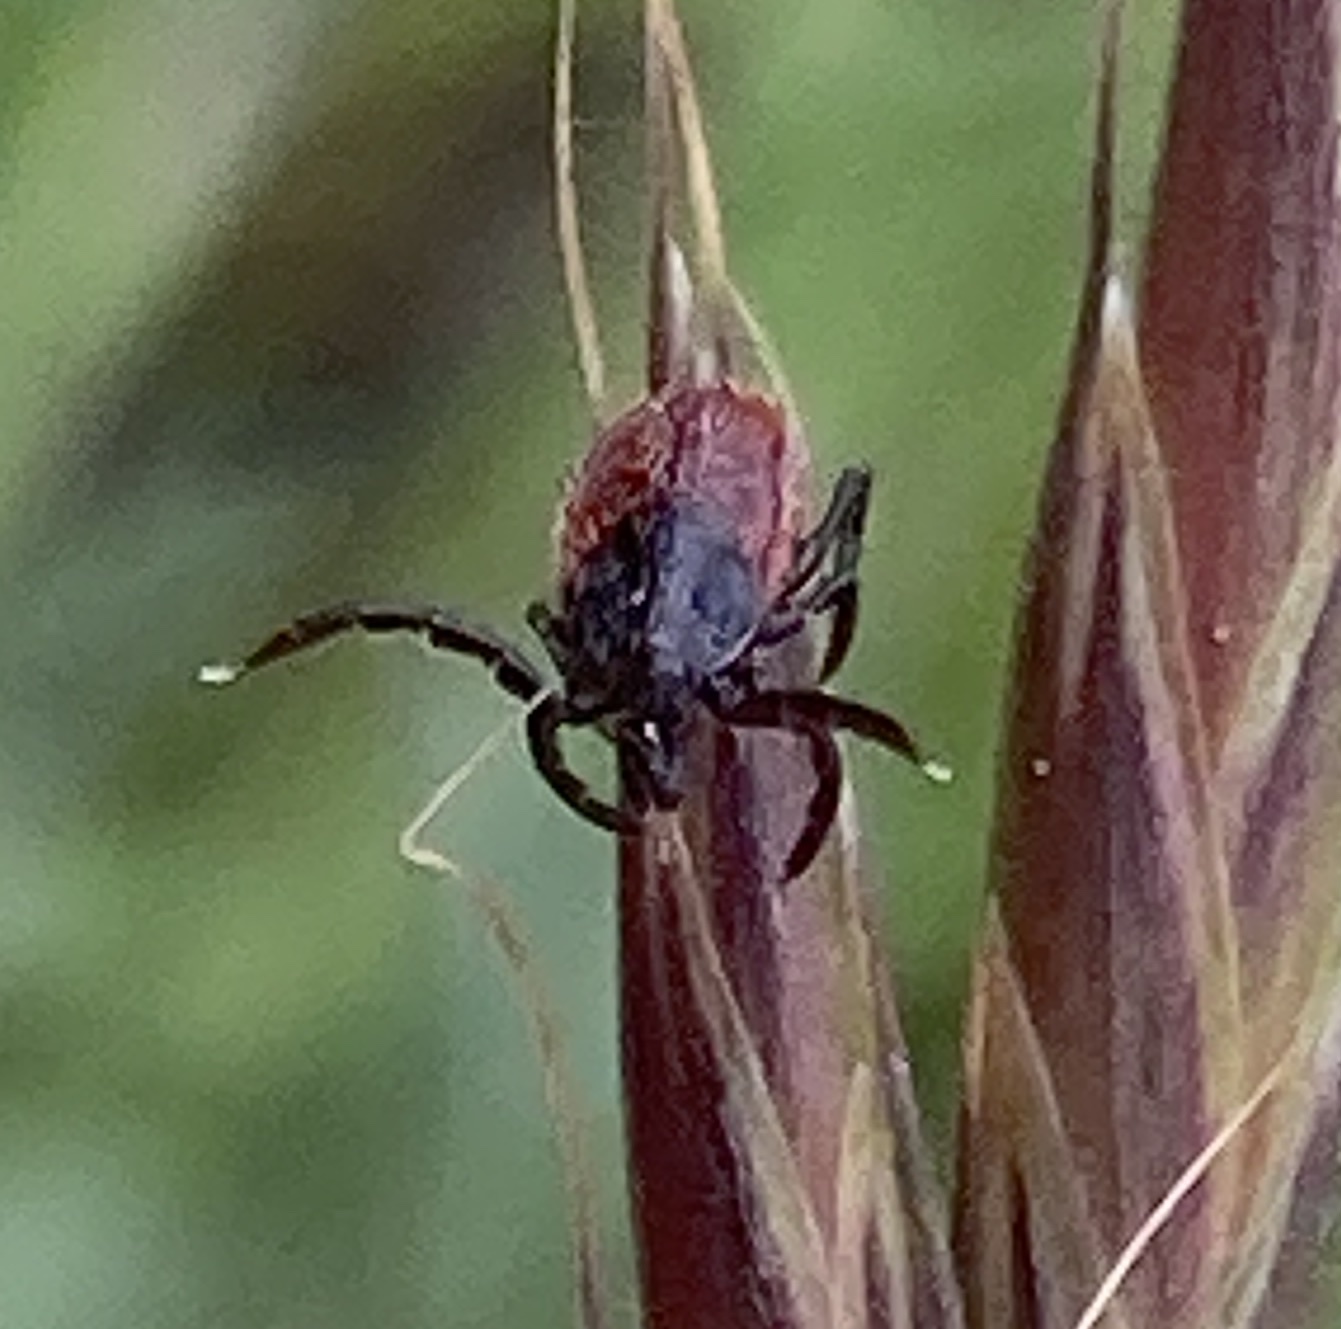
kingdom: Animalia
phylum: Arthropoda
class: Arachnida
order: Ixodida
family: Ixodidae
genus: Ixodes
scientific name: Ixodes pacificus
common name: California black-legged tick
